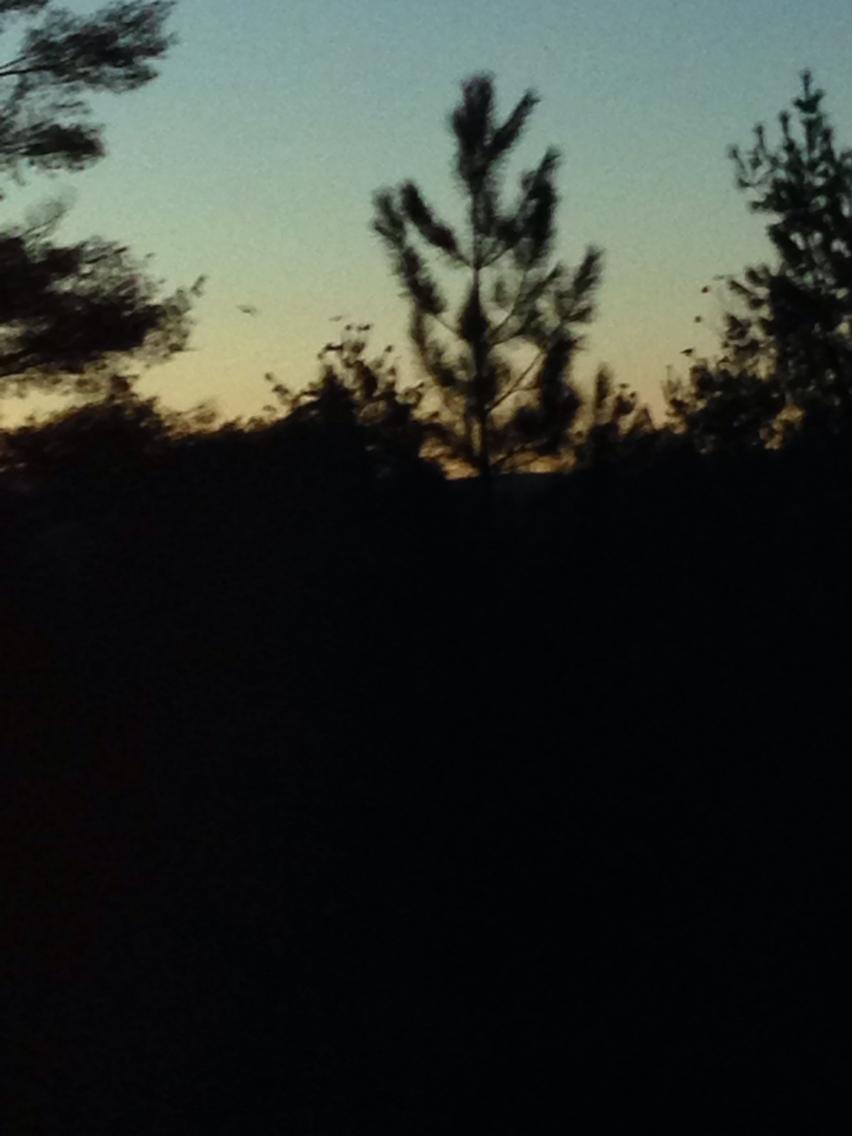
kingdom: Animalia
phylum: Chordata
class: Aves
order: Passeriformes
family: Corvidae
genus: Corvus
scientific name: Corvus brachyrhynchos
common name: American crow
